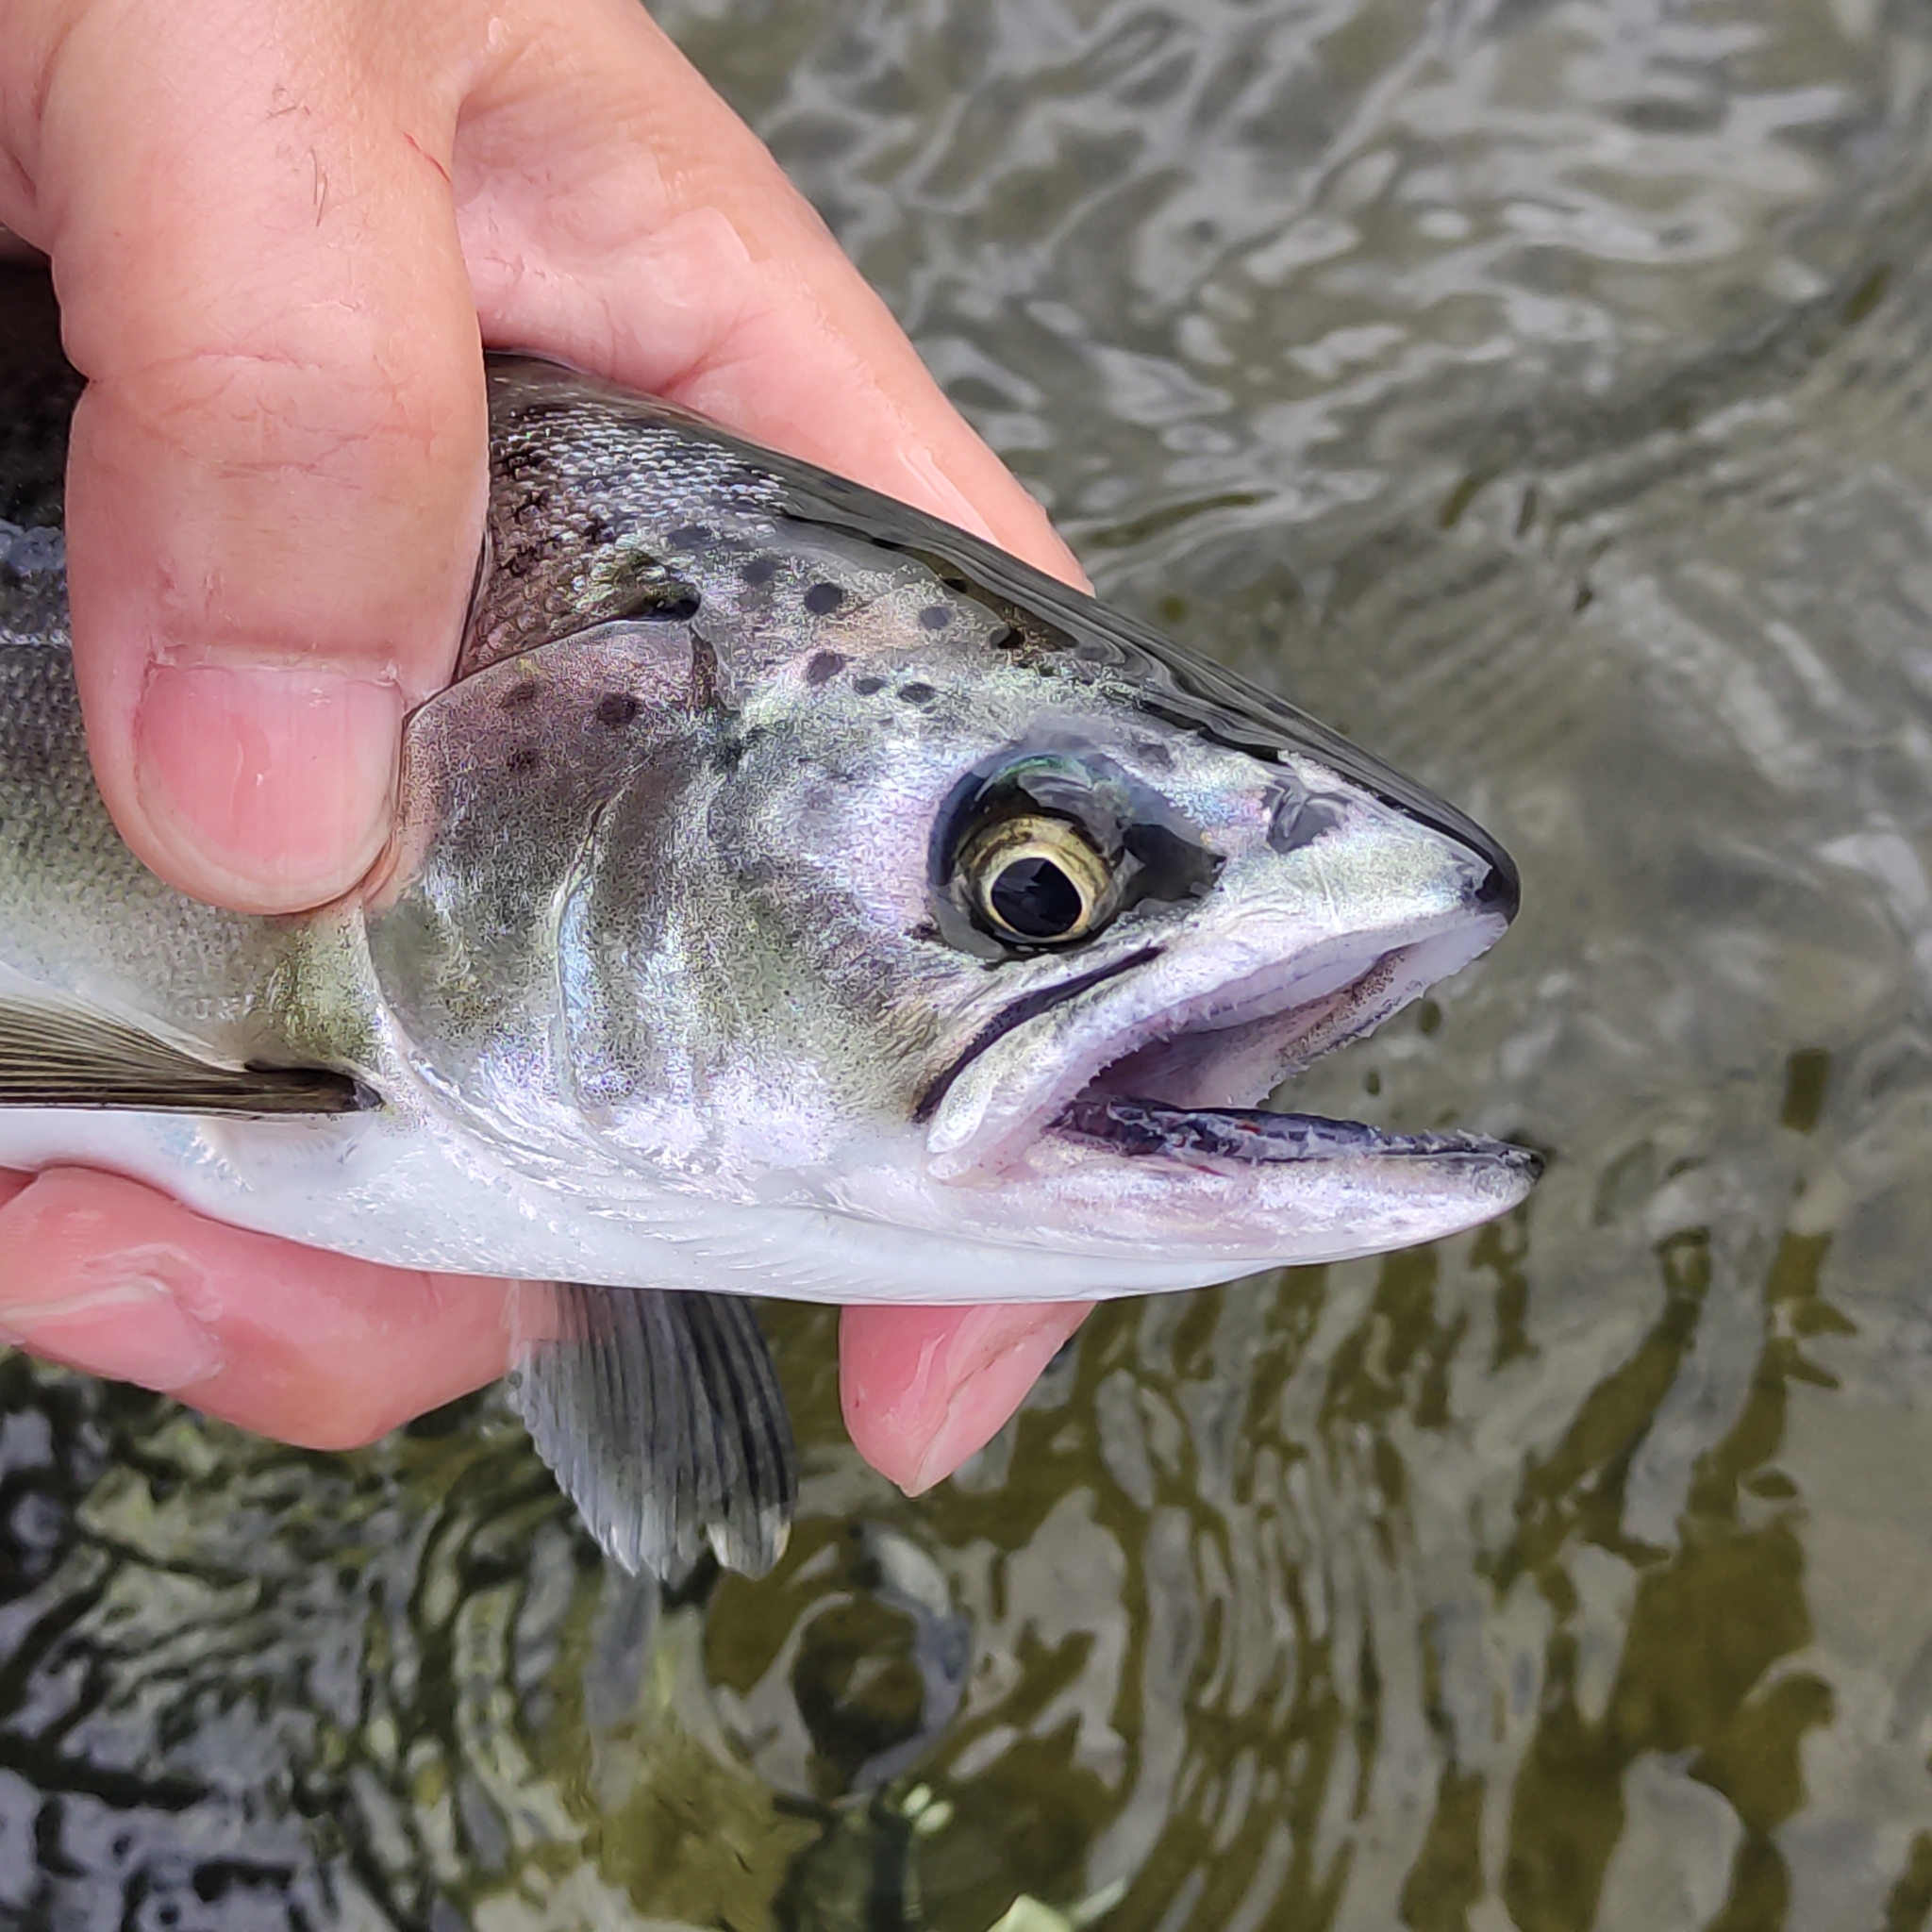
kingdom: Animalia
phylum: Chordata
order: Salmoniformes
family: Salmonidae
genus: Oncorhynchus
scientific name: Oncorhynchus tshawytscha
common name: Chinook salmon
